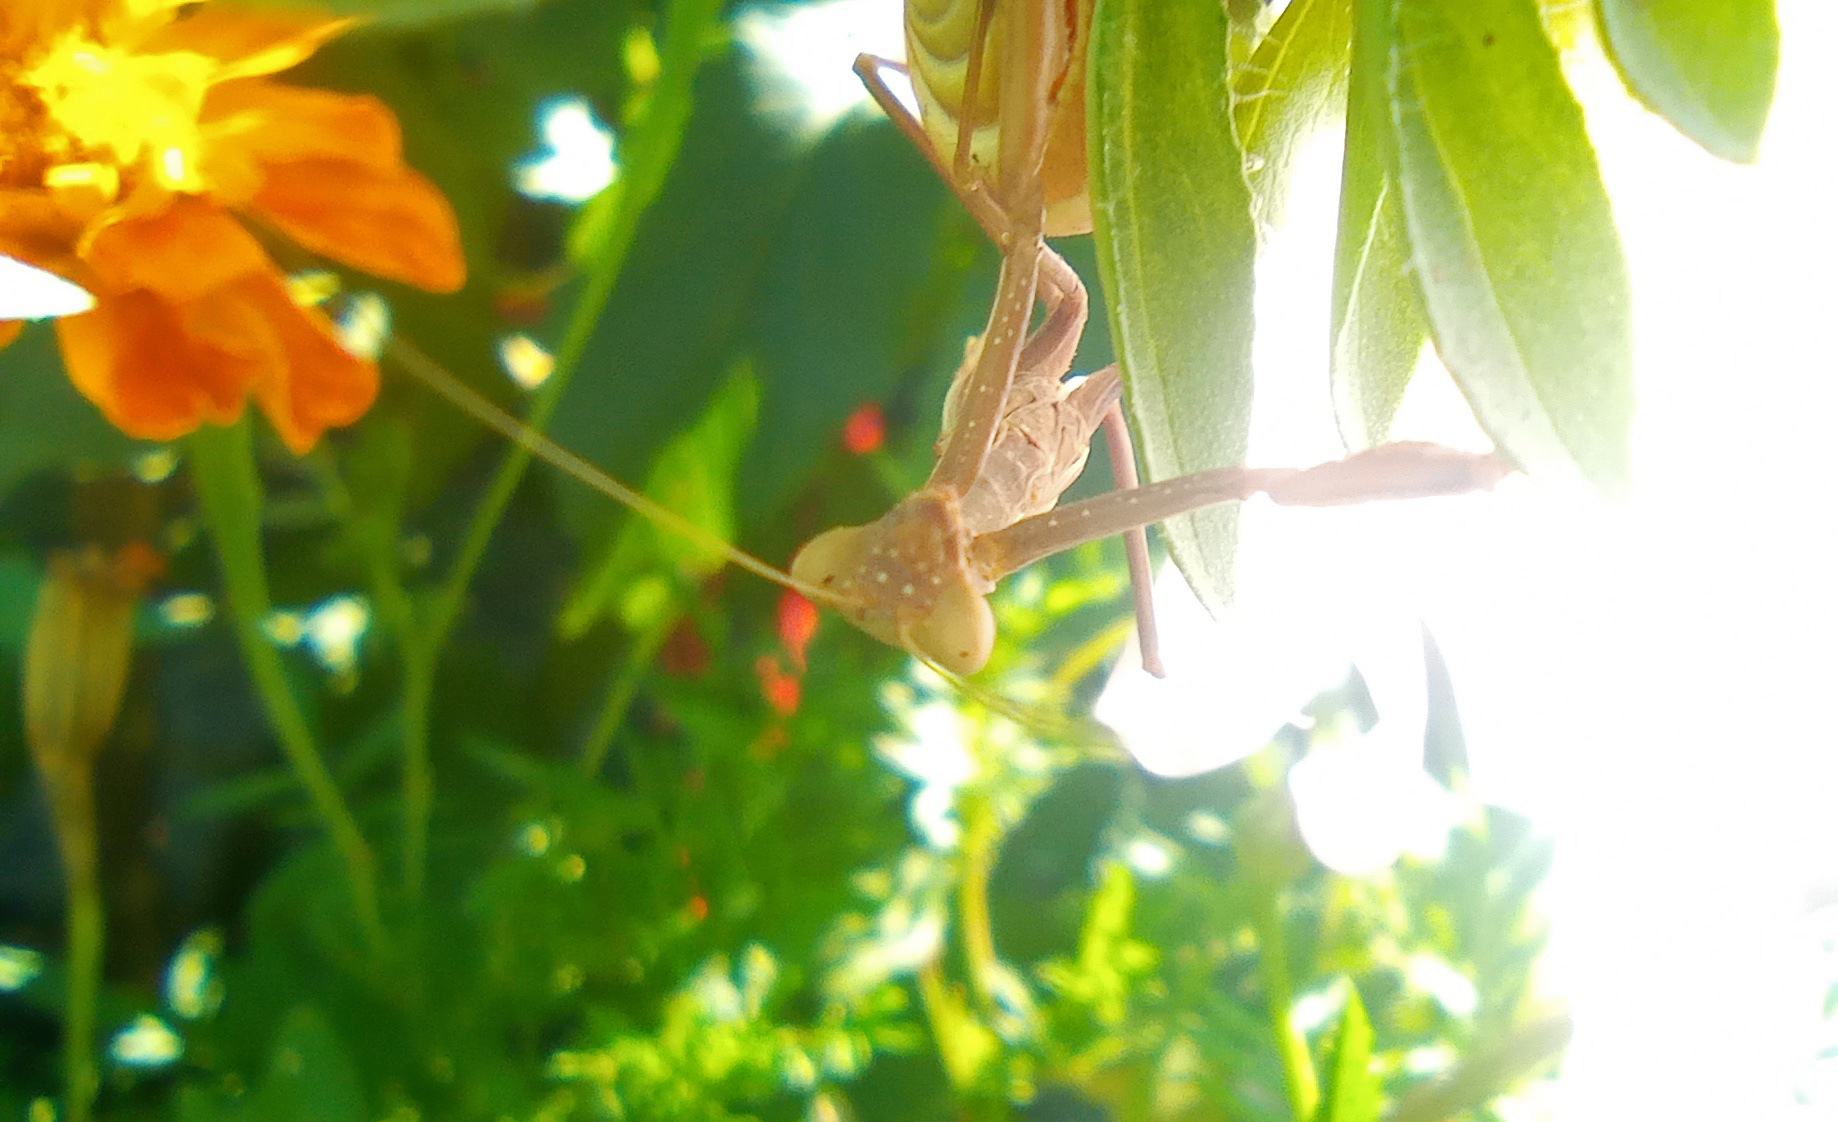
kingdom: Animalia
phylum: Arthropoda
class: Insecta
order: Mantodea
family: Eremiaphilidae
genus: Iris
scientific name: Iris polystictica
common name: Dot-winged mantis
